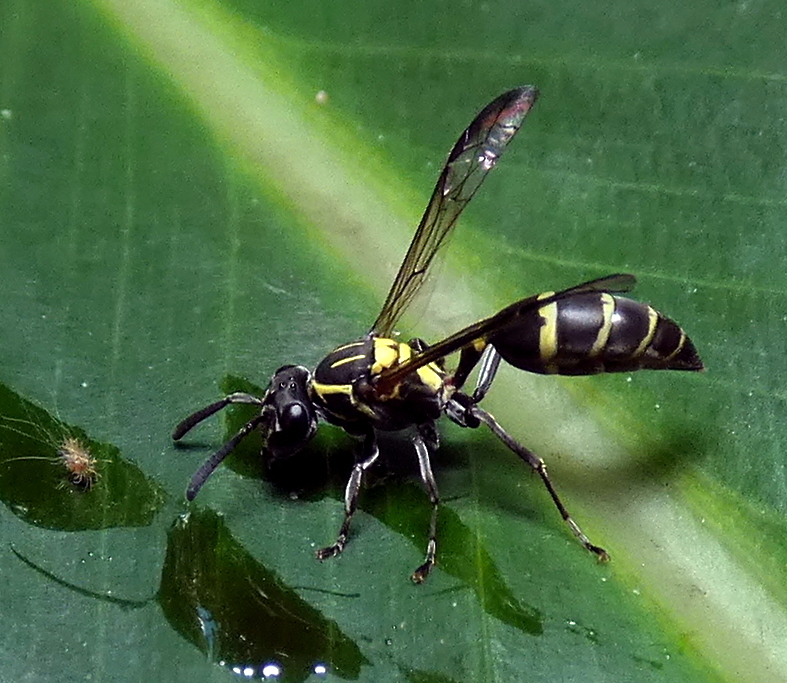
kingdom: Animalia
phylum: Arthropoda
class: Insecta
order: Hymenoptera
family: Eumenidae
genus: Polybia
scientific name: Polybia occidentalis
